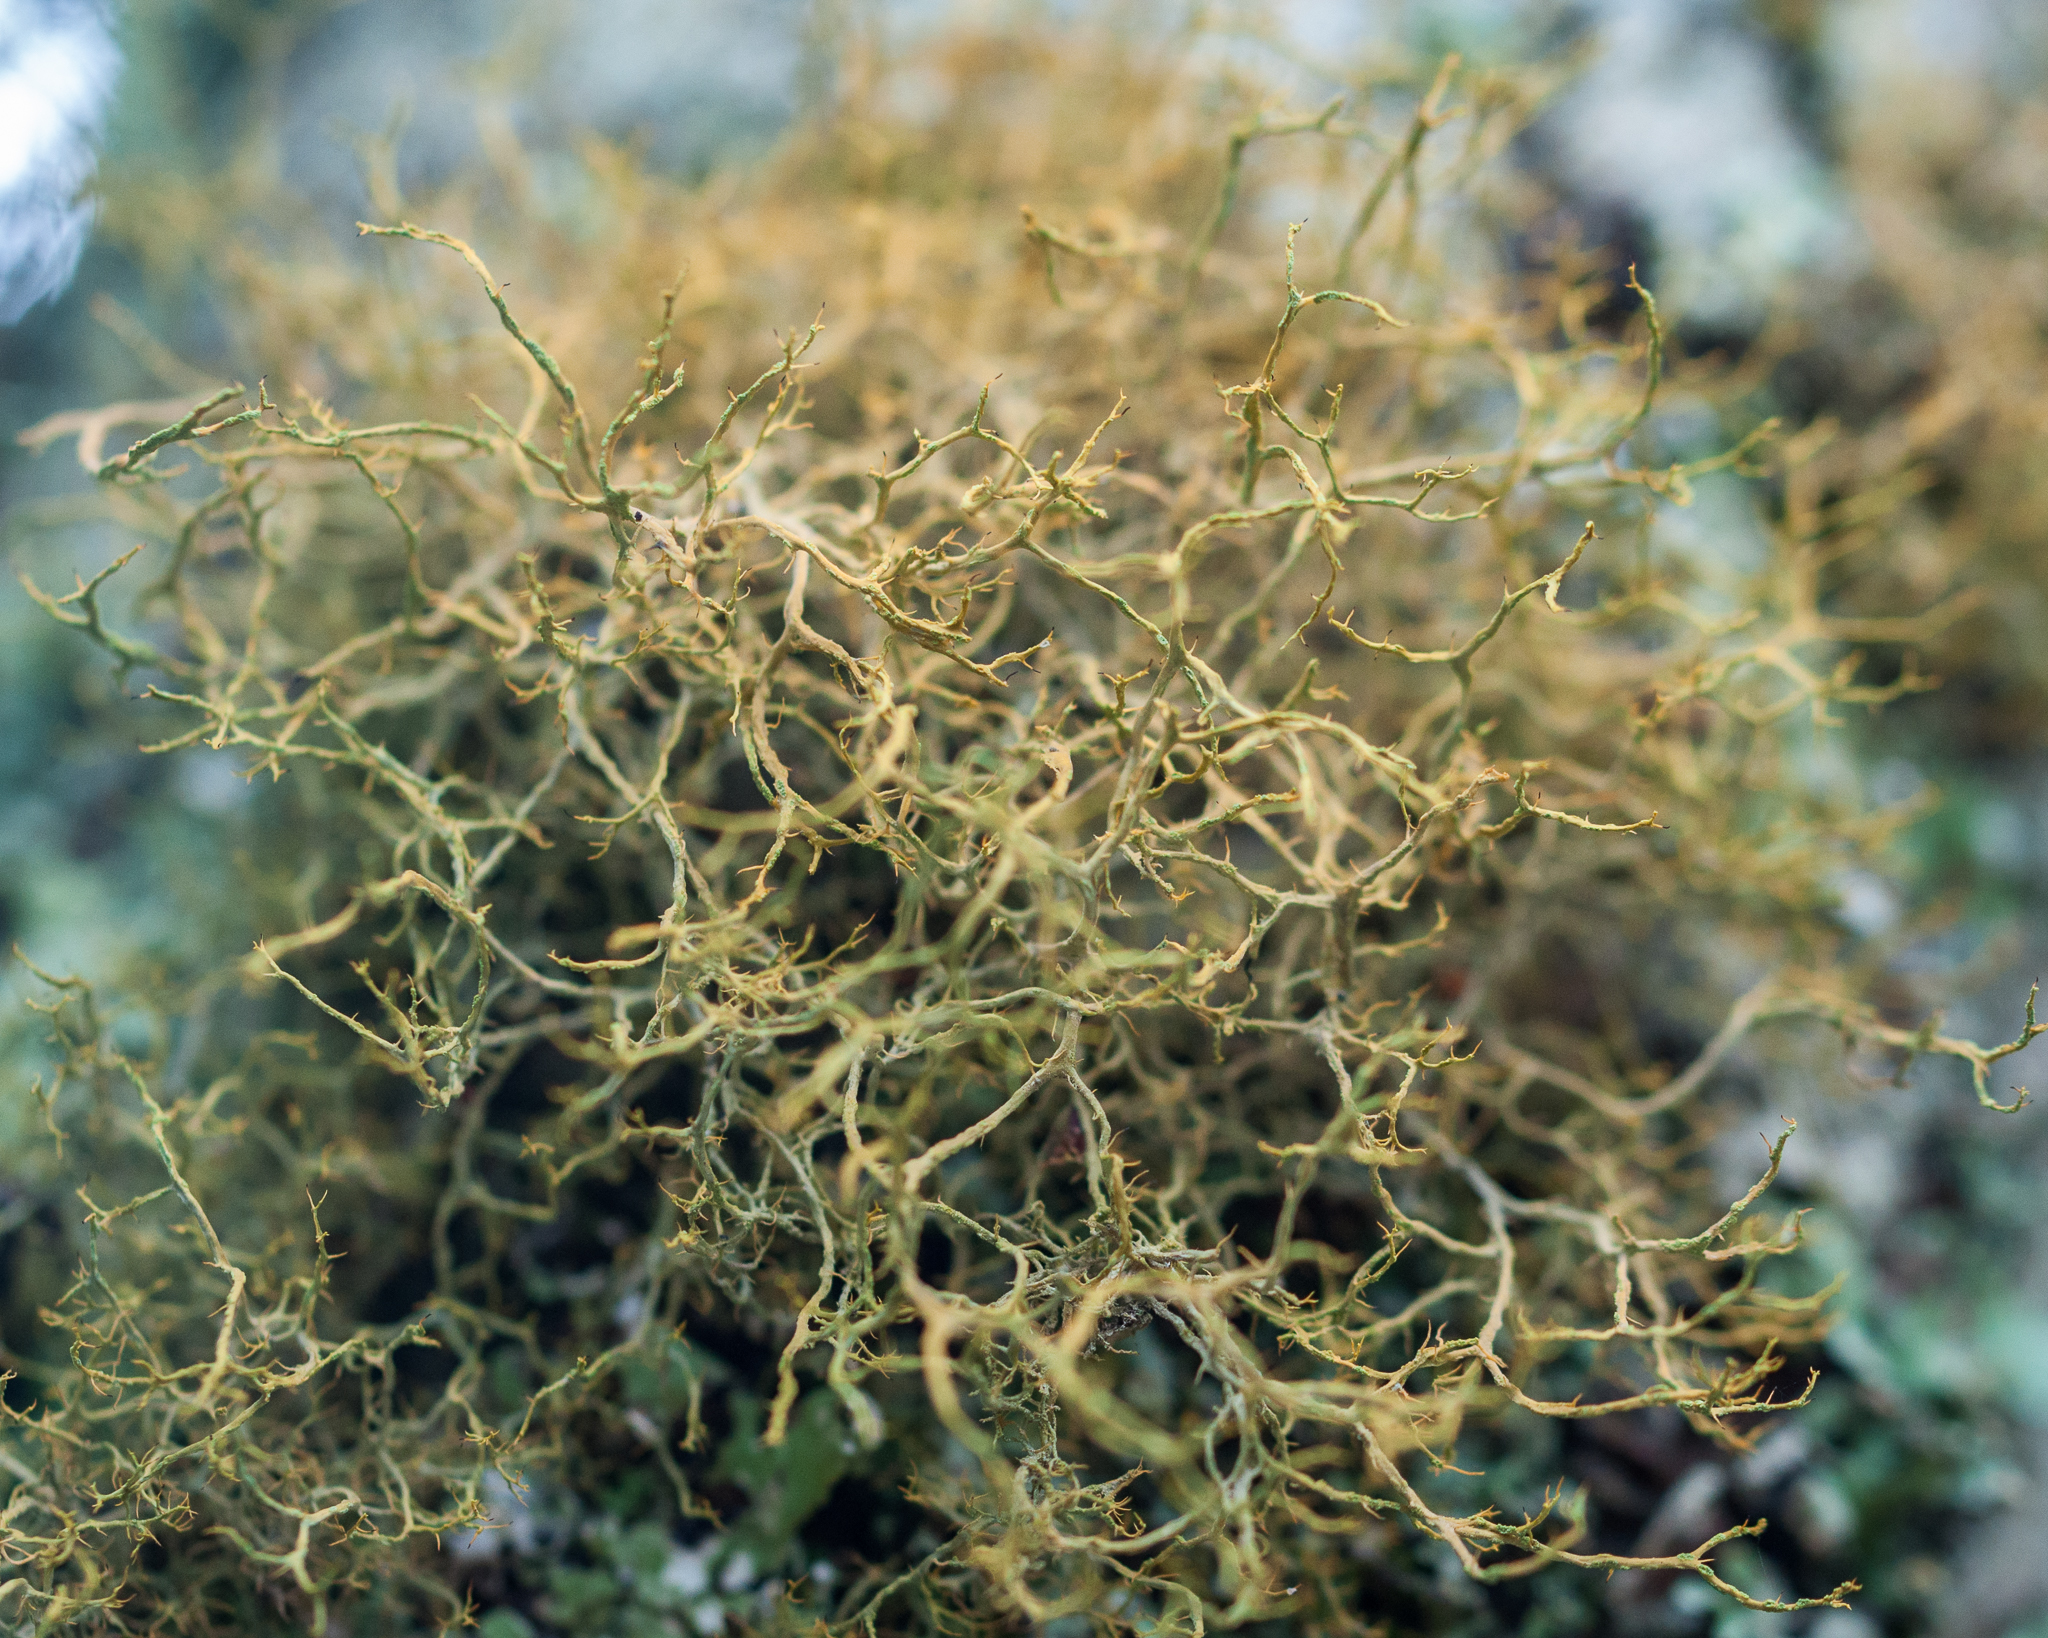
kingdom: Fungi
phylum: Ascomycota
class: Lecanoromycetes
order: Teloschistales
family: Teloschistaceae
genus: Teloschistes
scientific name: Teloschistes flavicans
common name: Golden hair-lichen
